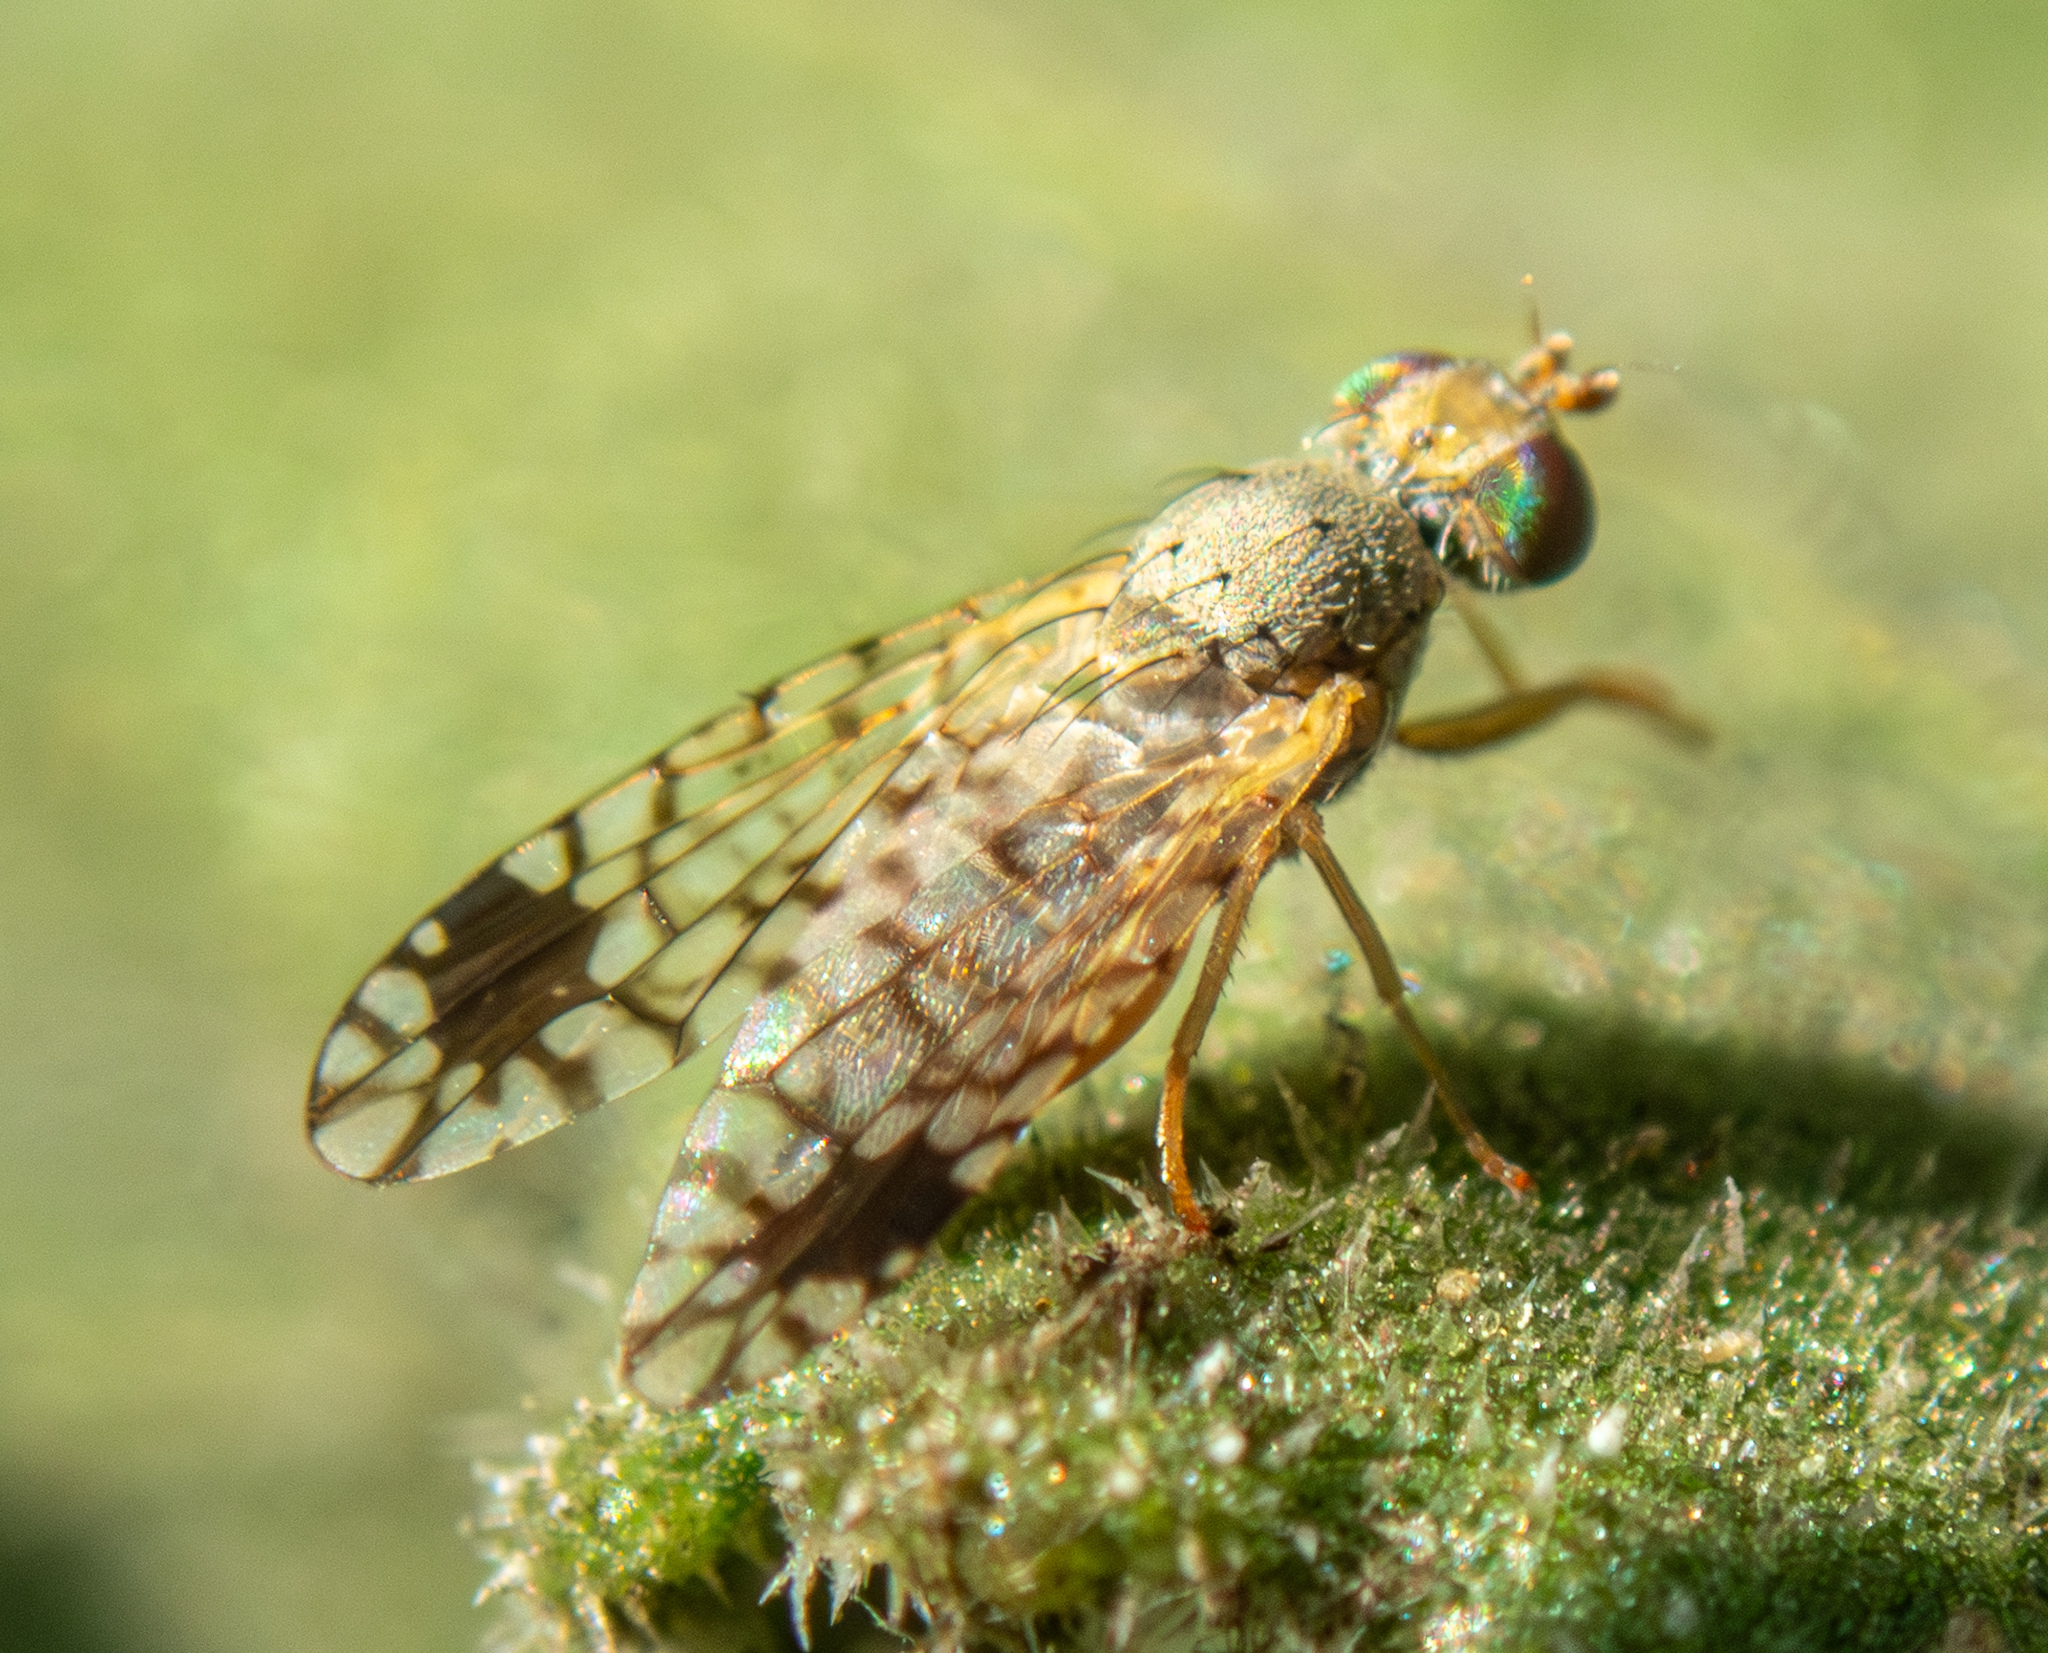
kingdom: Animalia
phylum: Arthropoda
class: Insecta
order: Diptera
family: Tephritidae
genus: Euarestoides
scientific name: Euarestoides acutangulus
